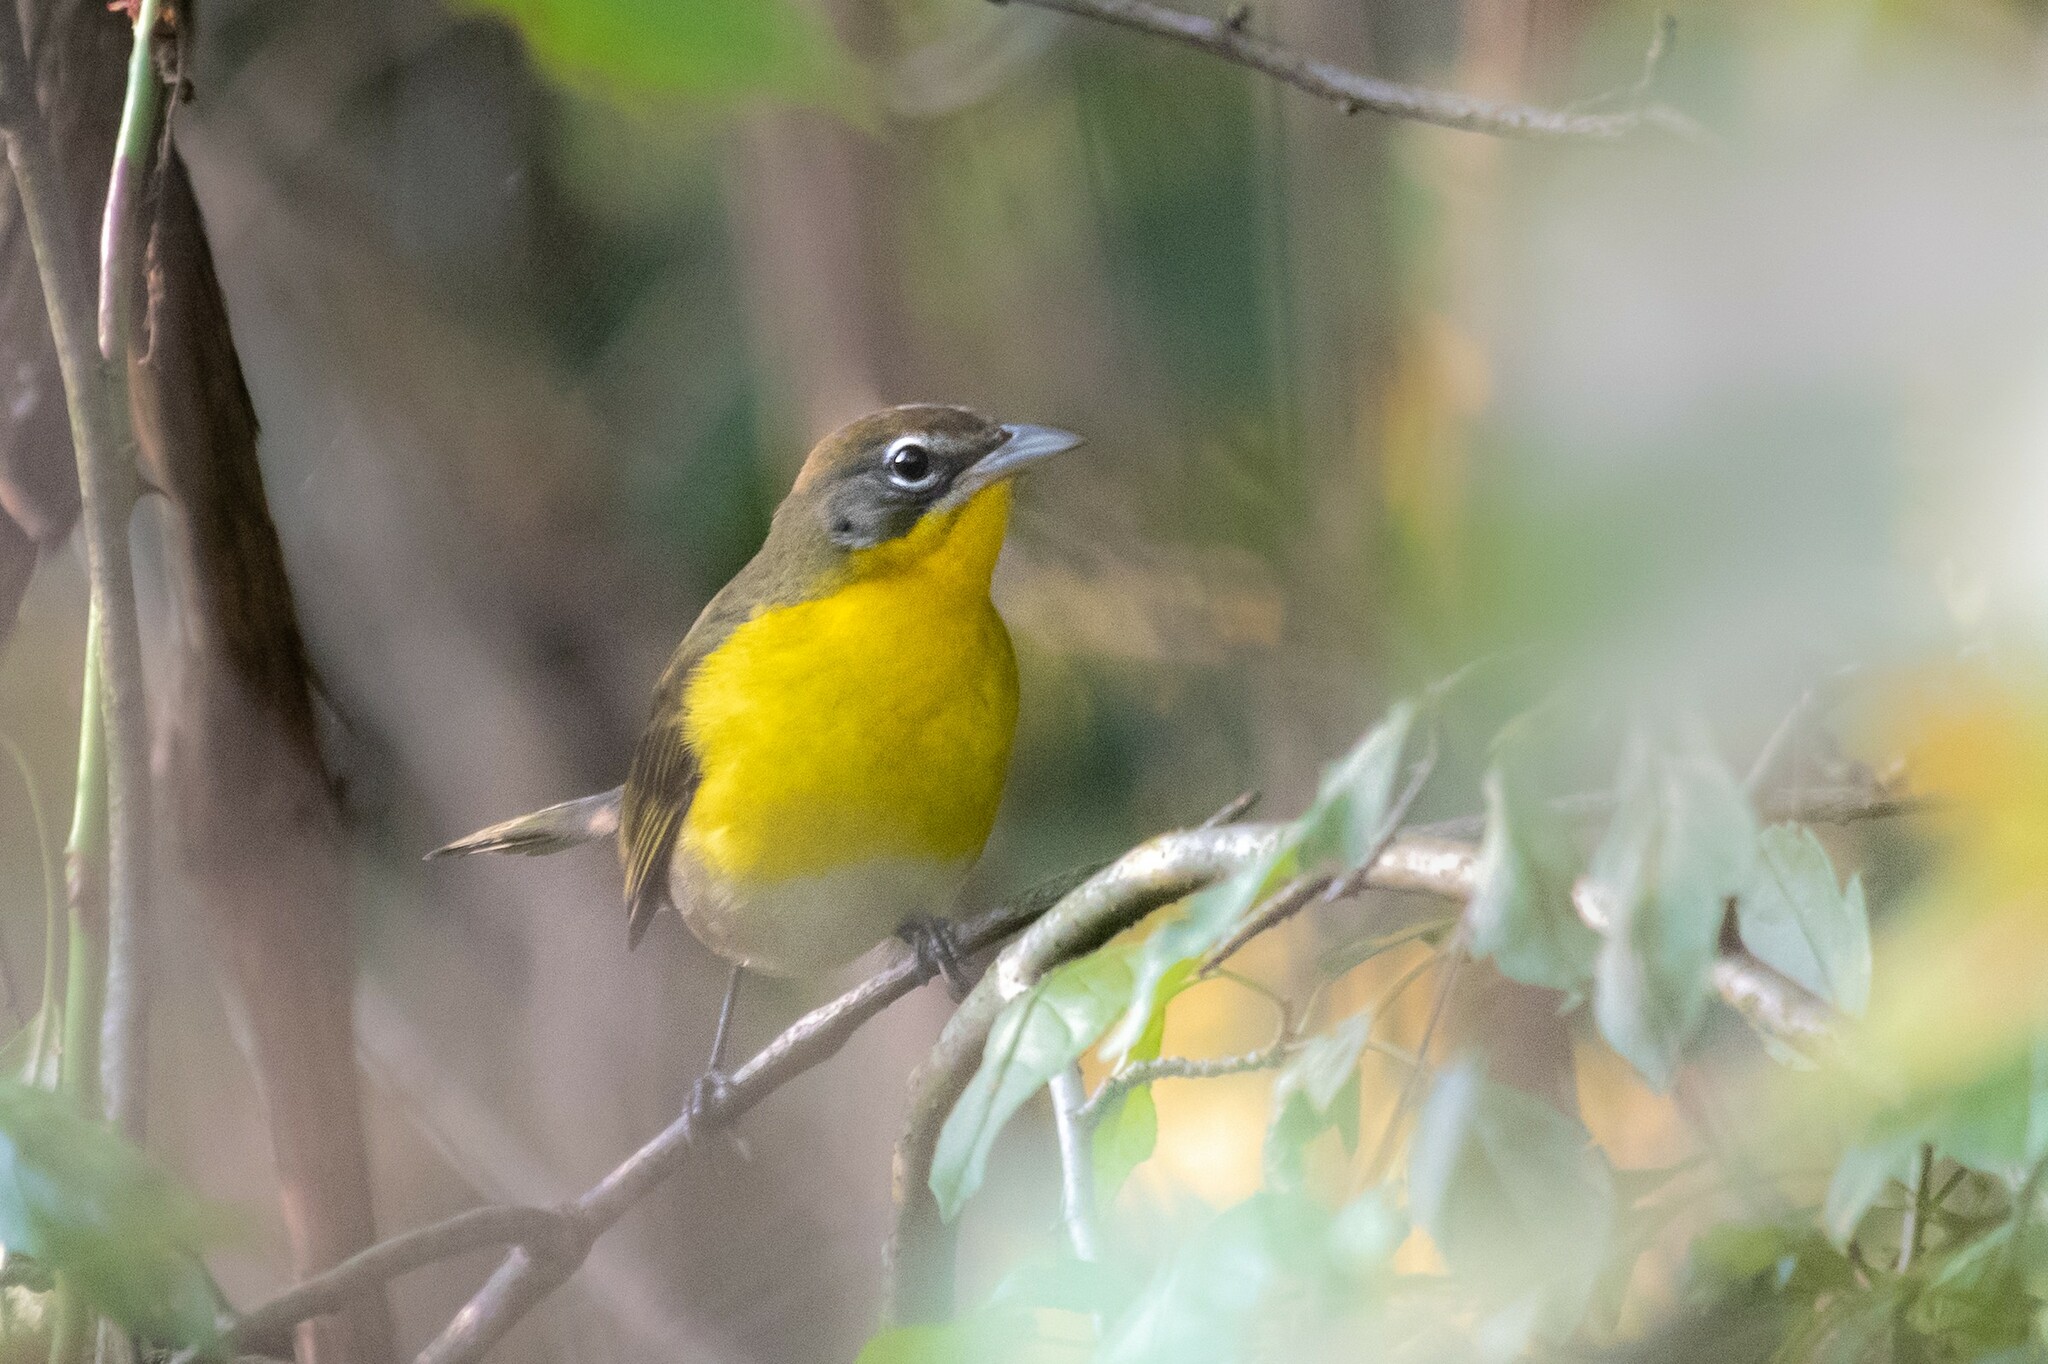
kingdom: Animalia
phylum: Chordata
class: Aves
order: Passeriformes
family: Parulidae
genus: Icteria
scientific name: Icteria virens
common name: Yellow-breasted chat
